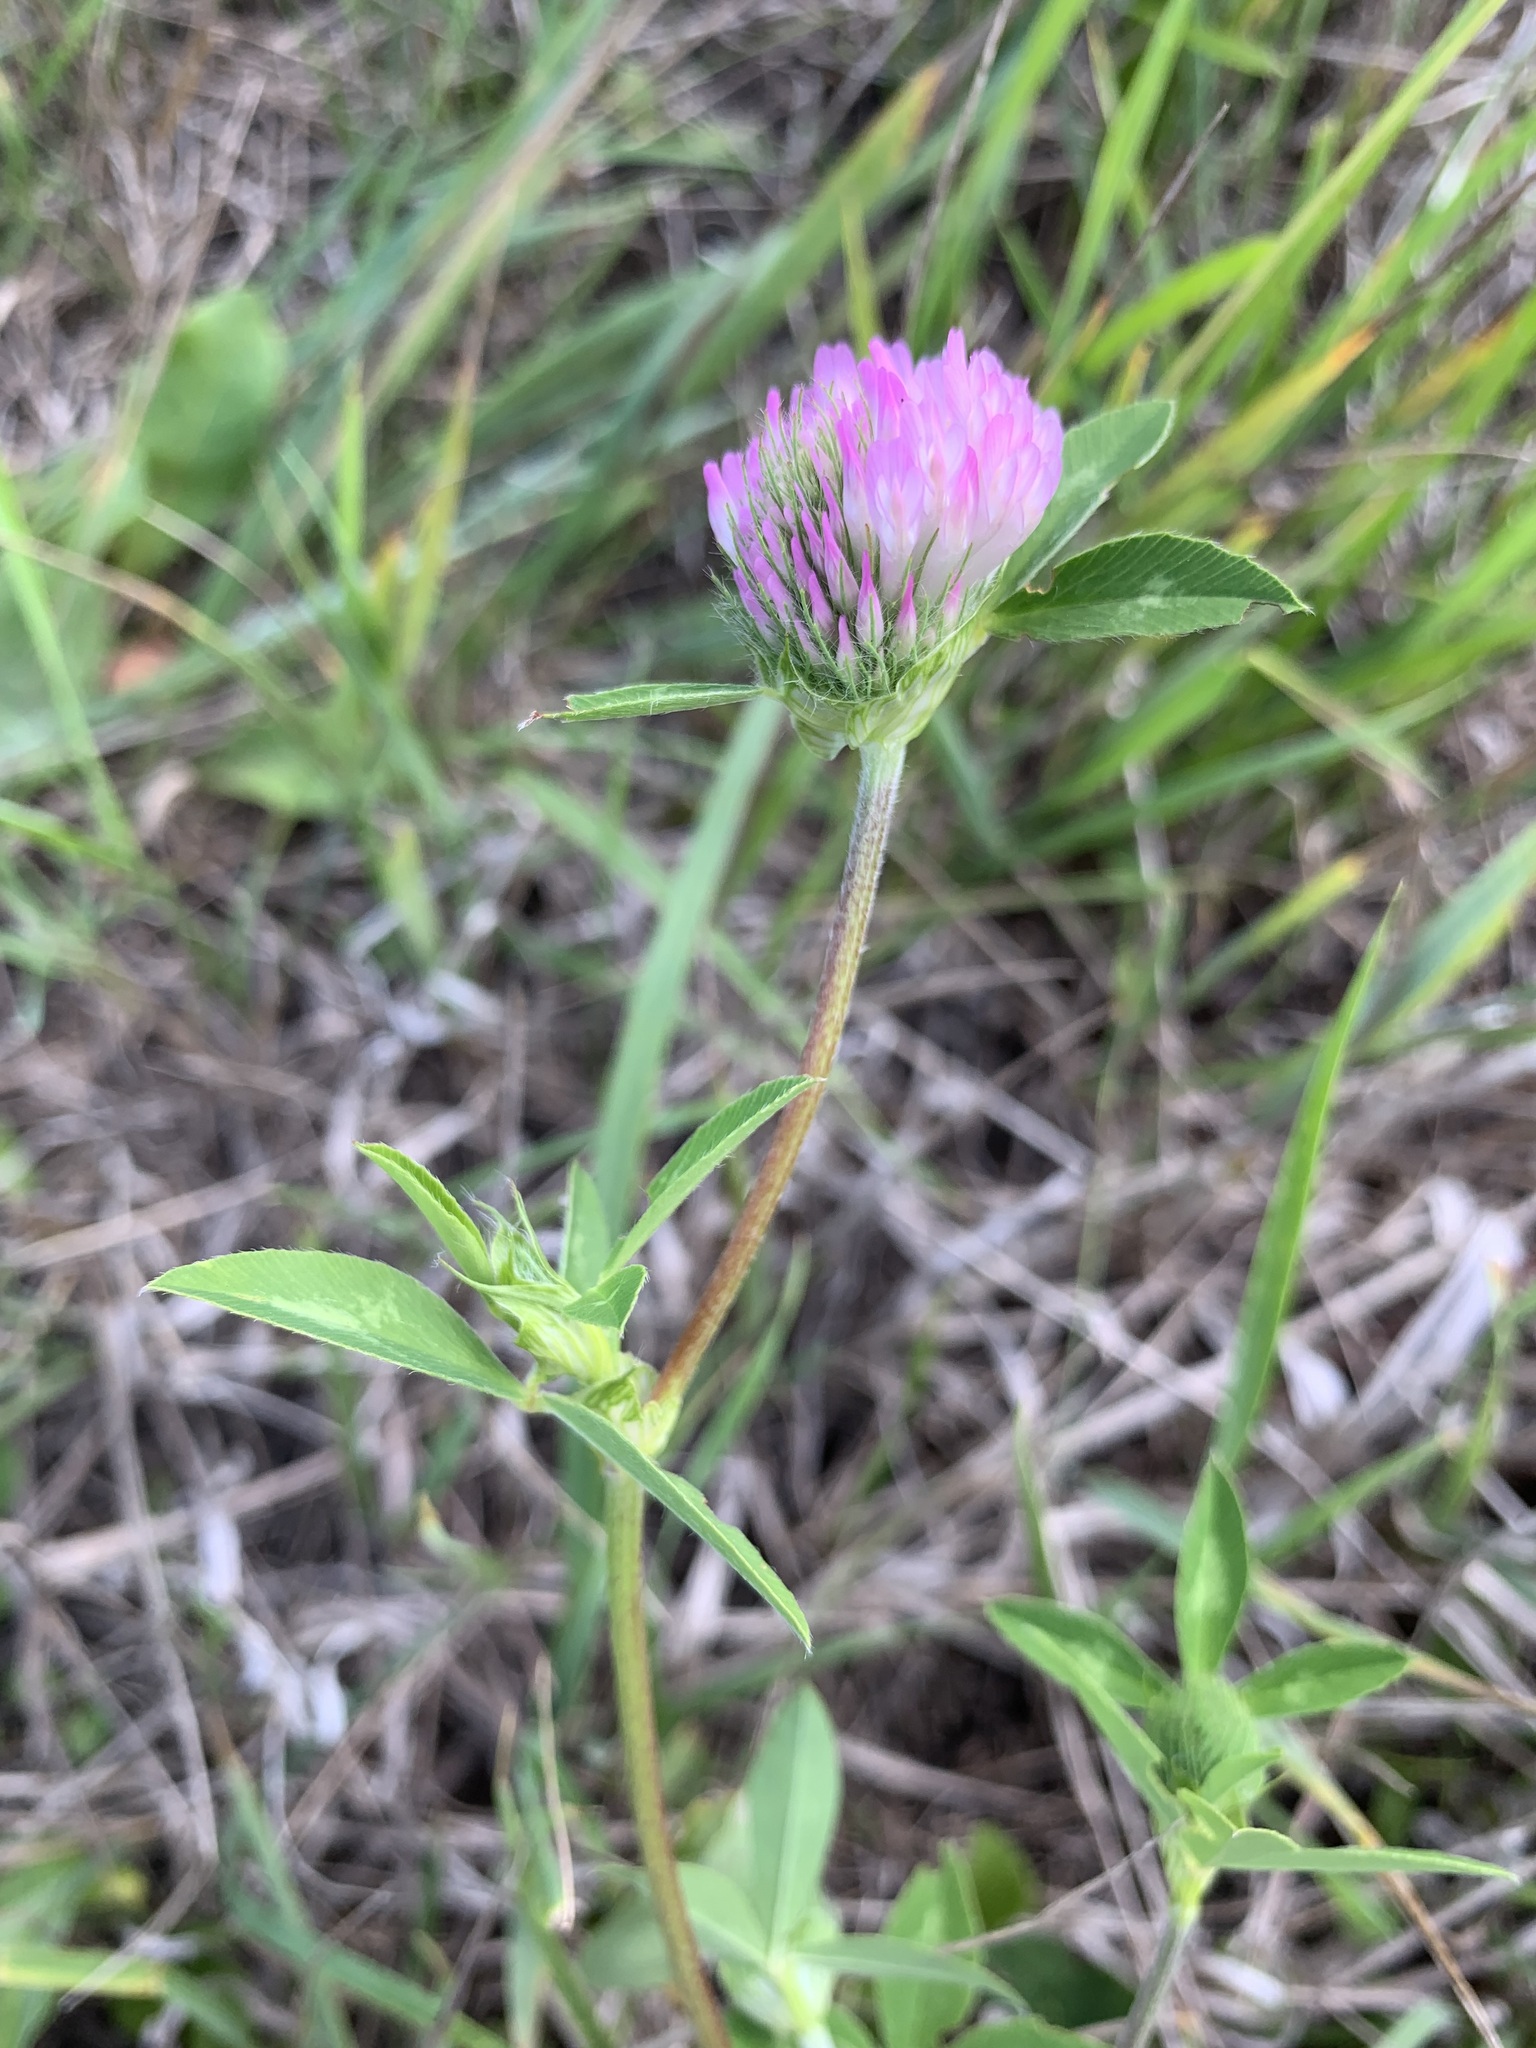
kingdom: Plantae
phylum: Tracheophyta
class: Magnoliopsida
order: Fabales
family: Fabaceae
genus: Trifolium
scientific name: Trifolium pratense
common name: Red clover
